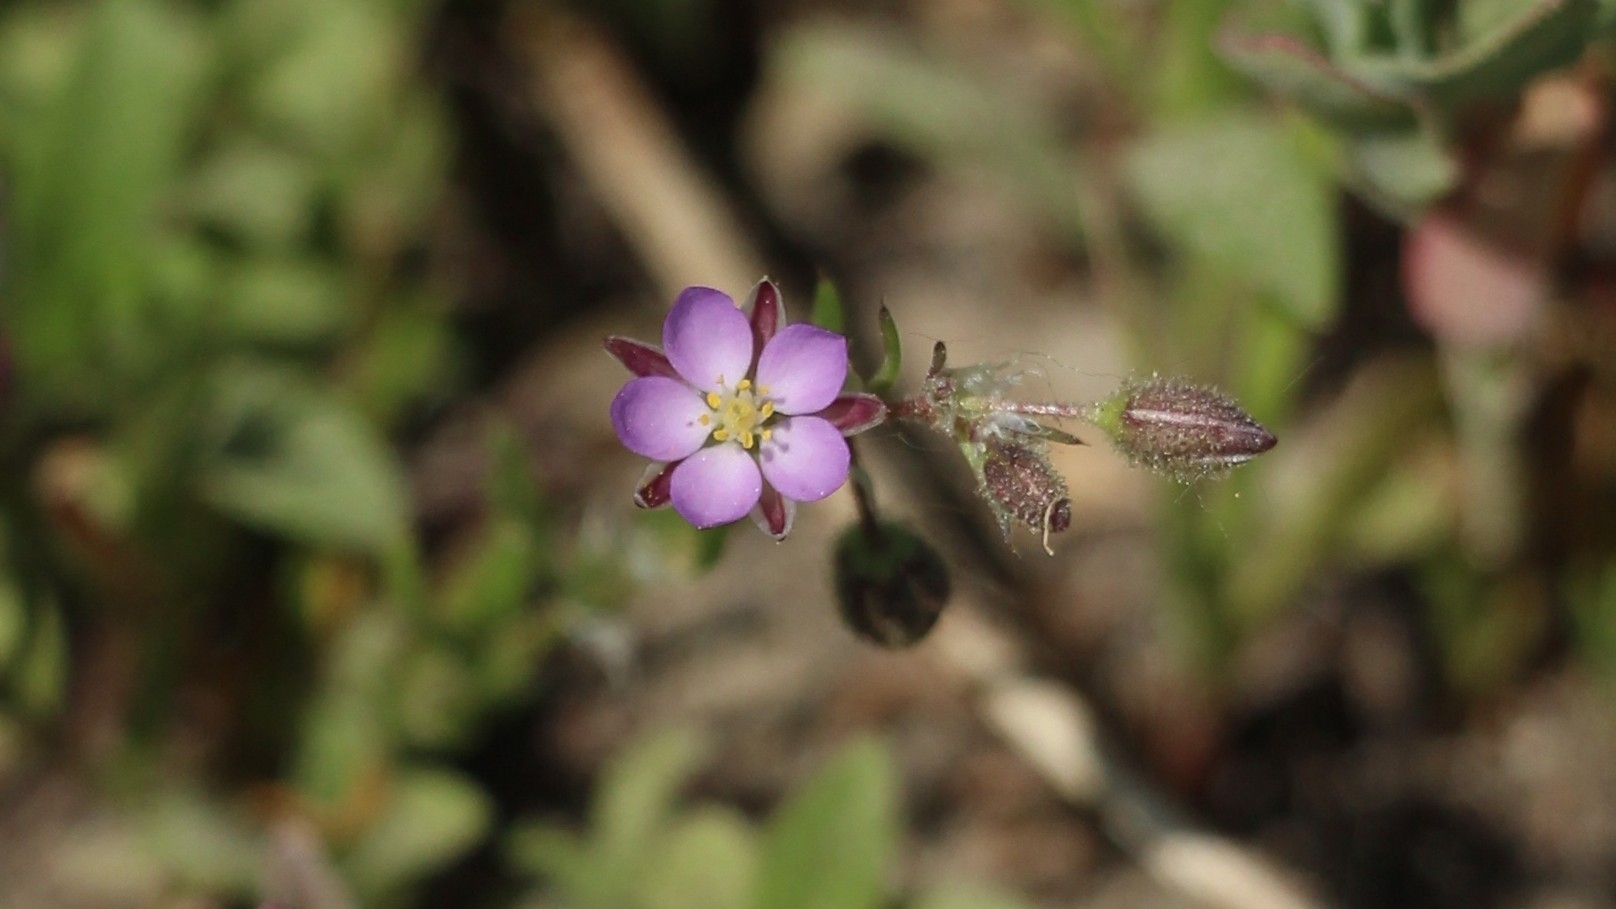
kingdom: Plantae
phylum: Tracheophyta
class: Magnoliopsida
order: Caryophyllales
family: Caryophyllaceae
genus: Spergularia
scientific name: Spergularia rubra
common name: Red sand-spurrey
